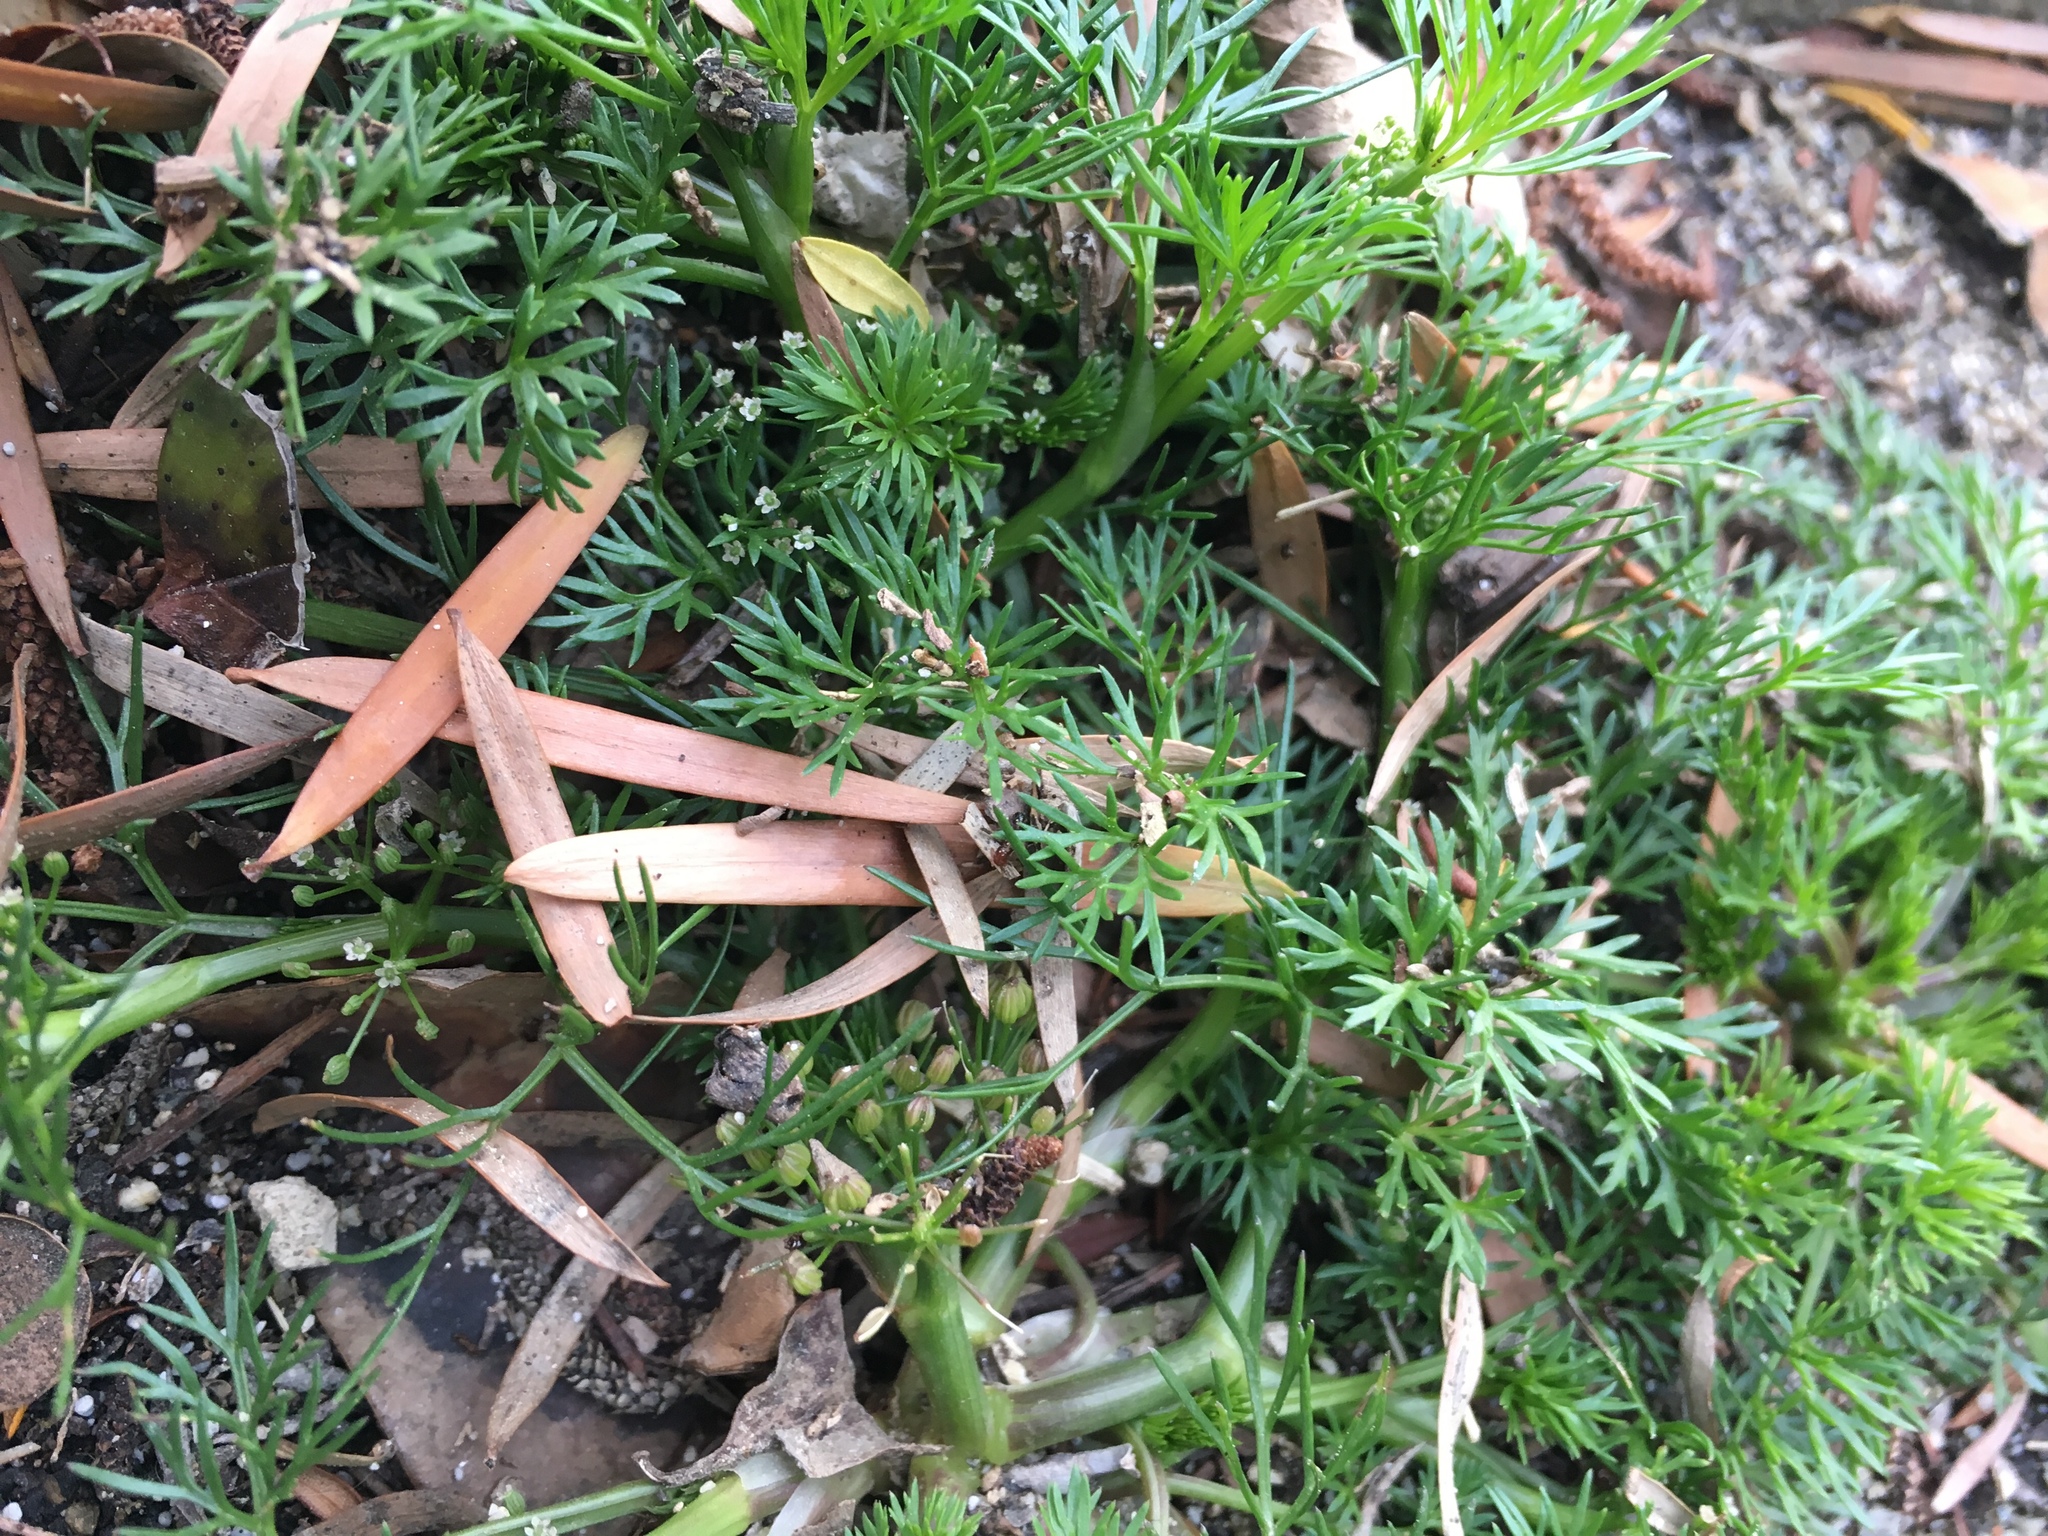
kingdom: Plantae
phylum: Tracheophyta
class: Magnoliopsida
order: Apiales
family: Apiaceae
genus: Cyclospermum
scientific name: Cyclospermum leptophyllum
